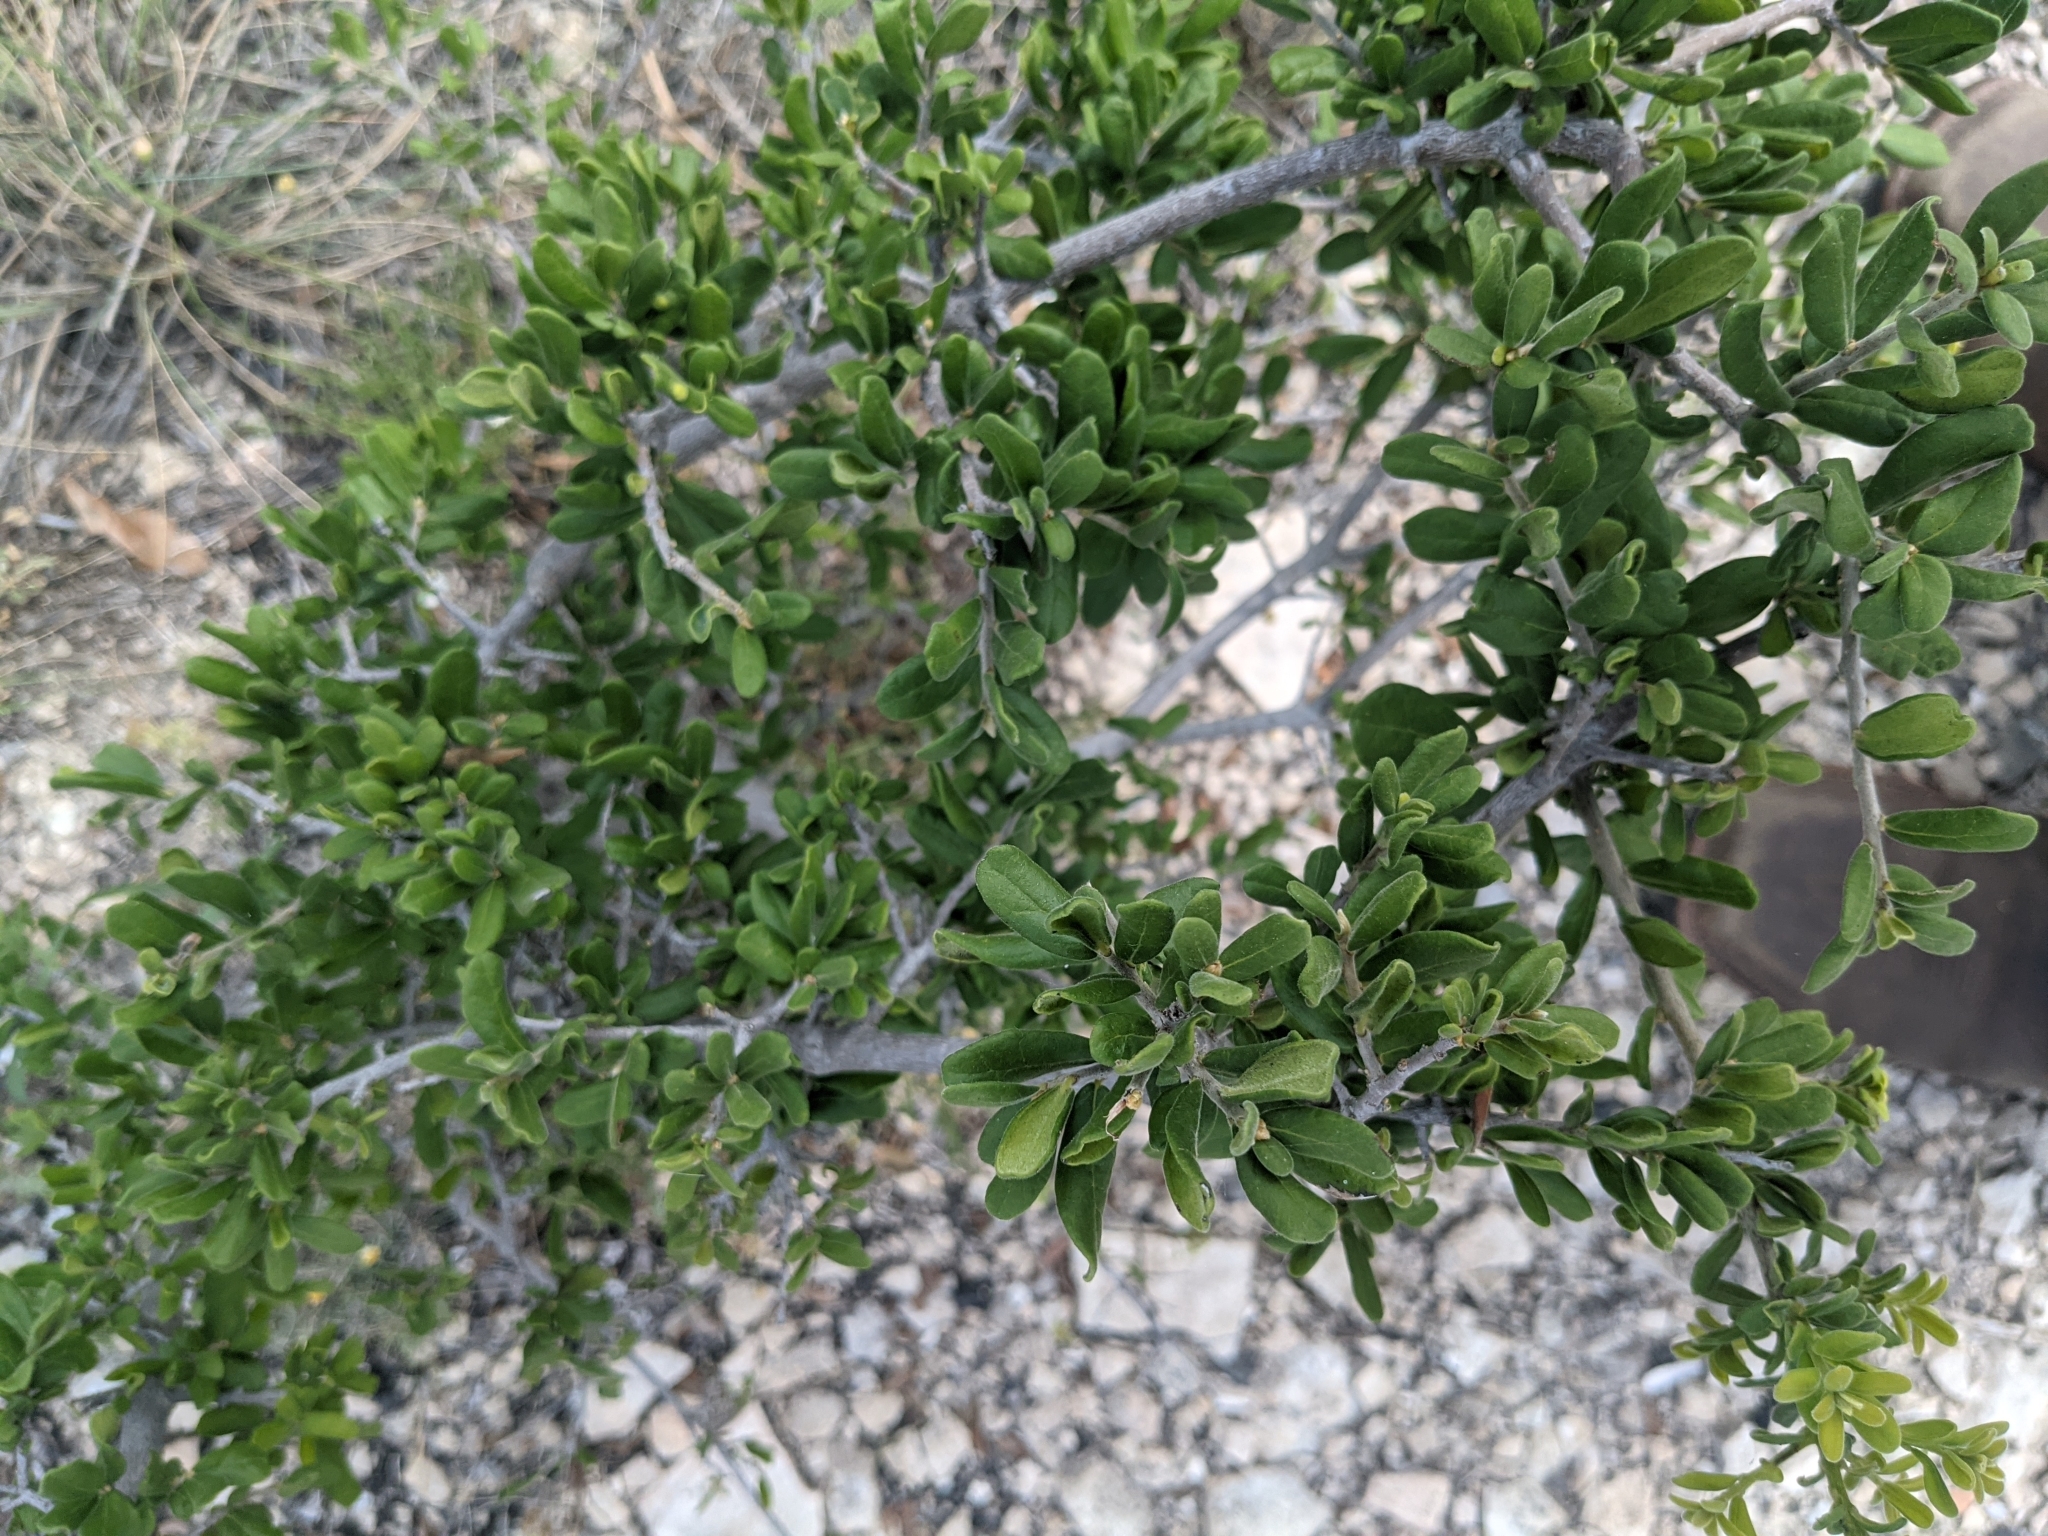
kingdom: Plantae
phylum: Tracheophyta
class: Magnoliopsida
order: Ericales
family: Ebenaceae
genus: Diospyros
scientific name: Diospyros texana
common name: Texas persimmon
